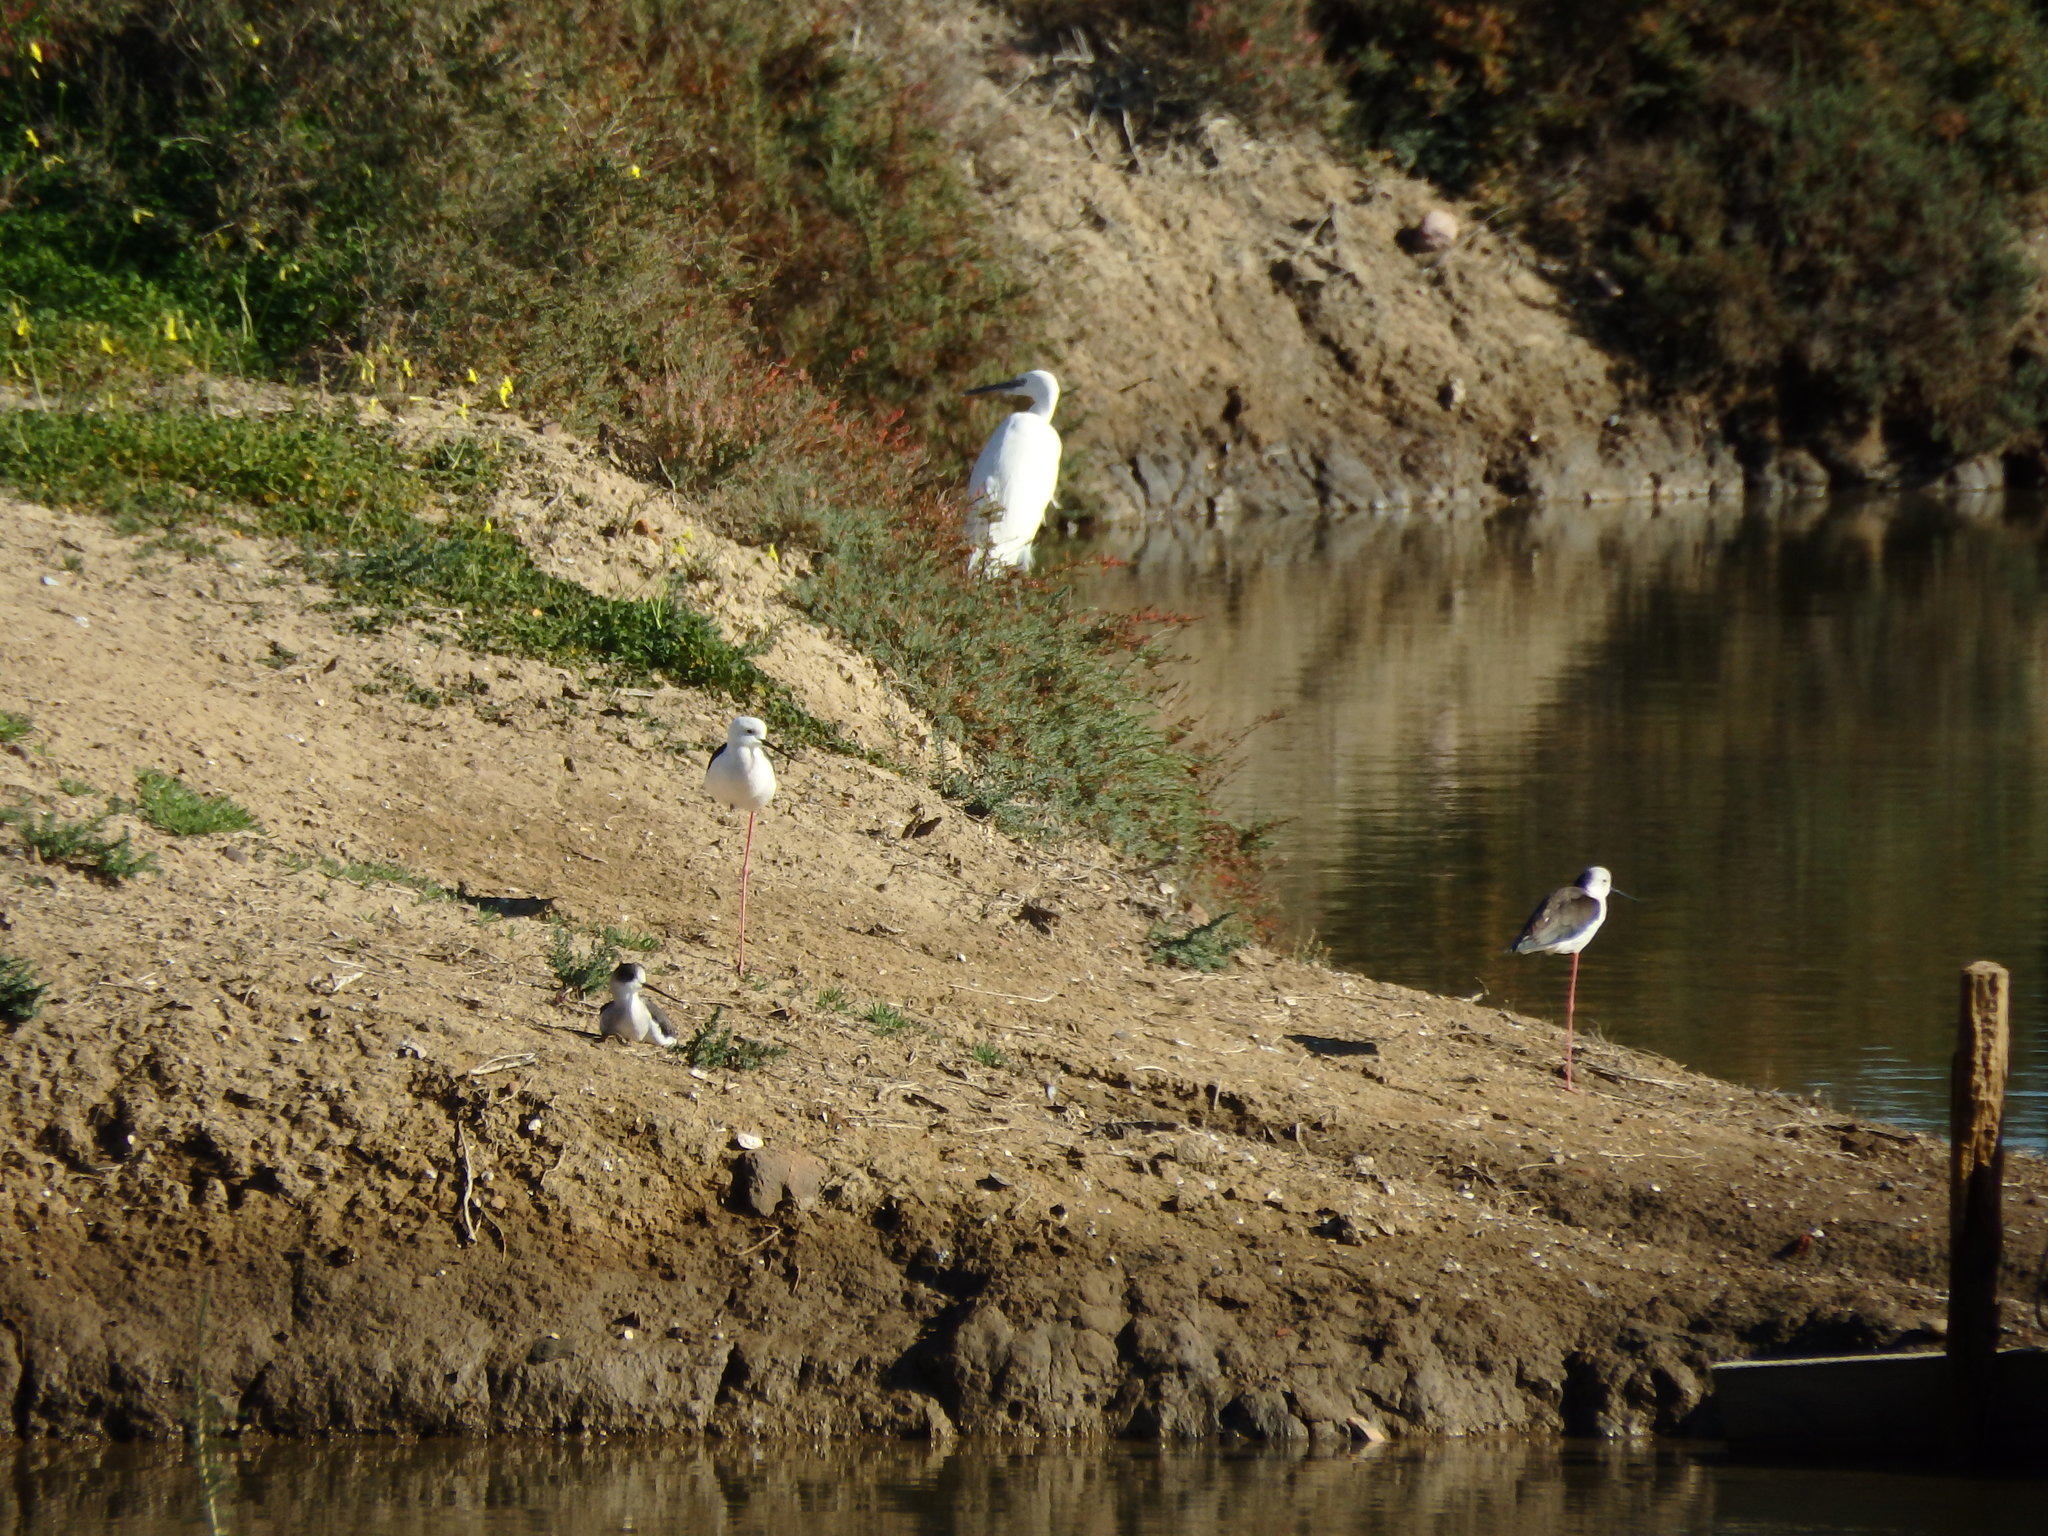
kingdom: Animalia
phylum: Chordata
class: Aves
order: Charadriiformes
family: Recurvirostridae
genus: Himantopus
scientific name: Himantopus himantopus
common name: Black-winged stilt
